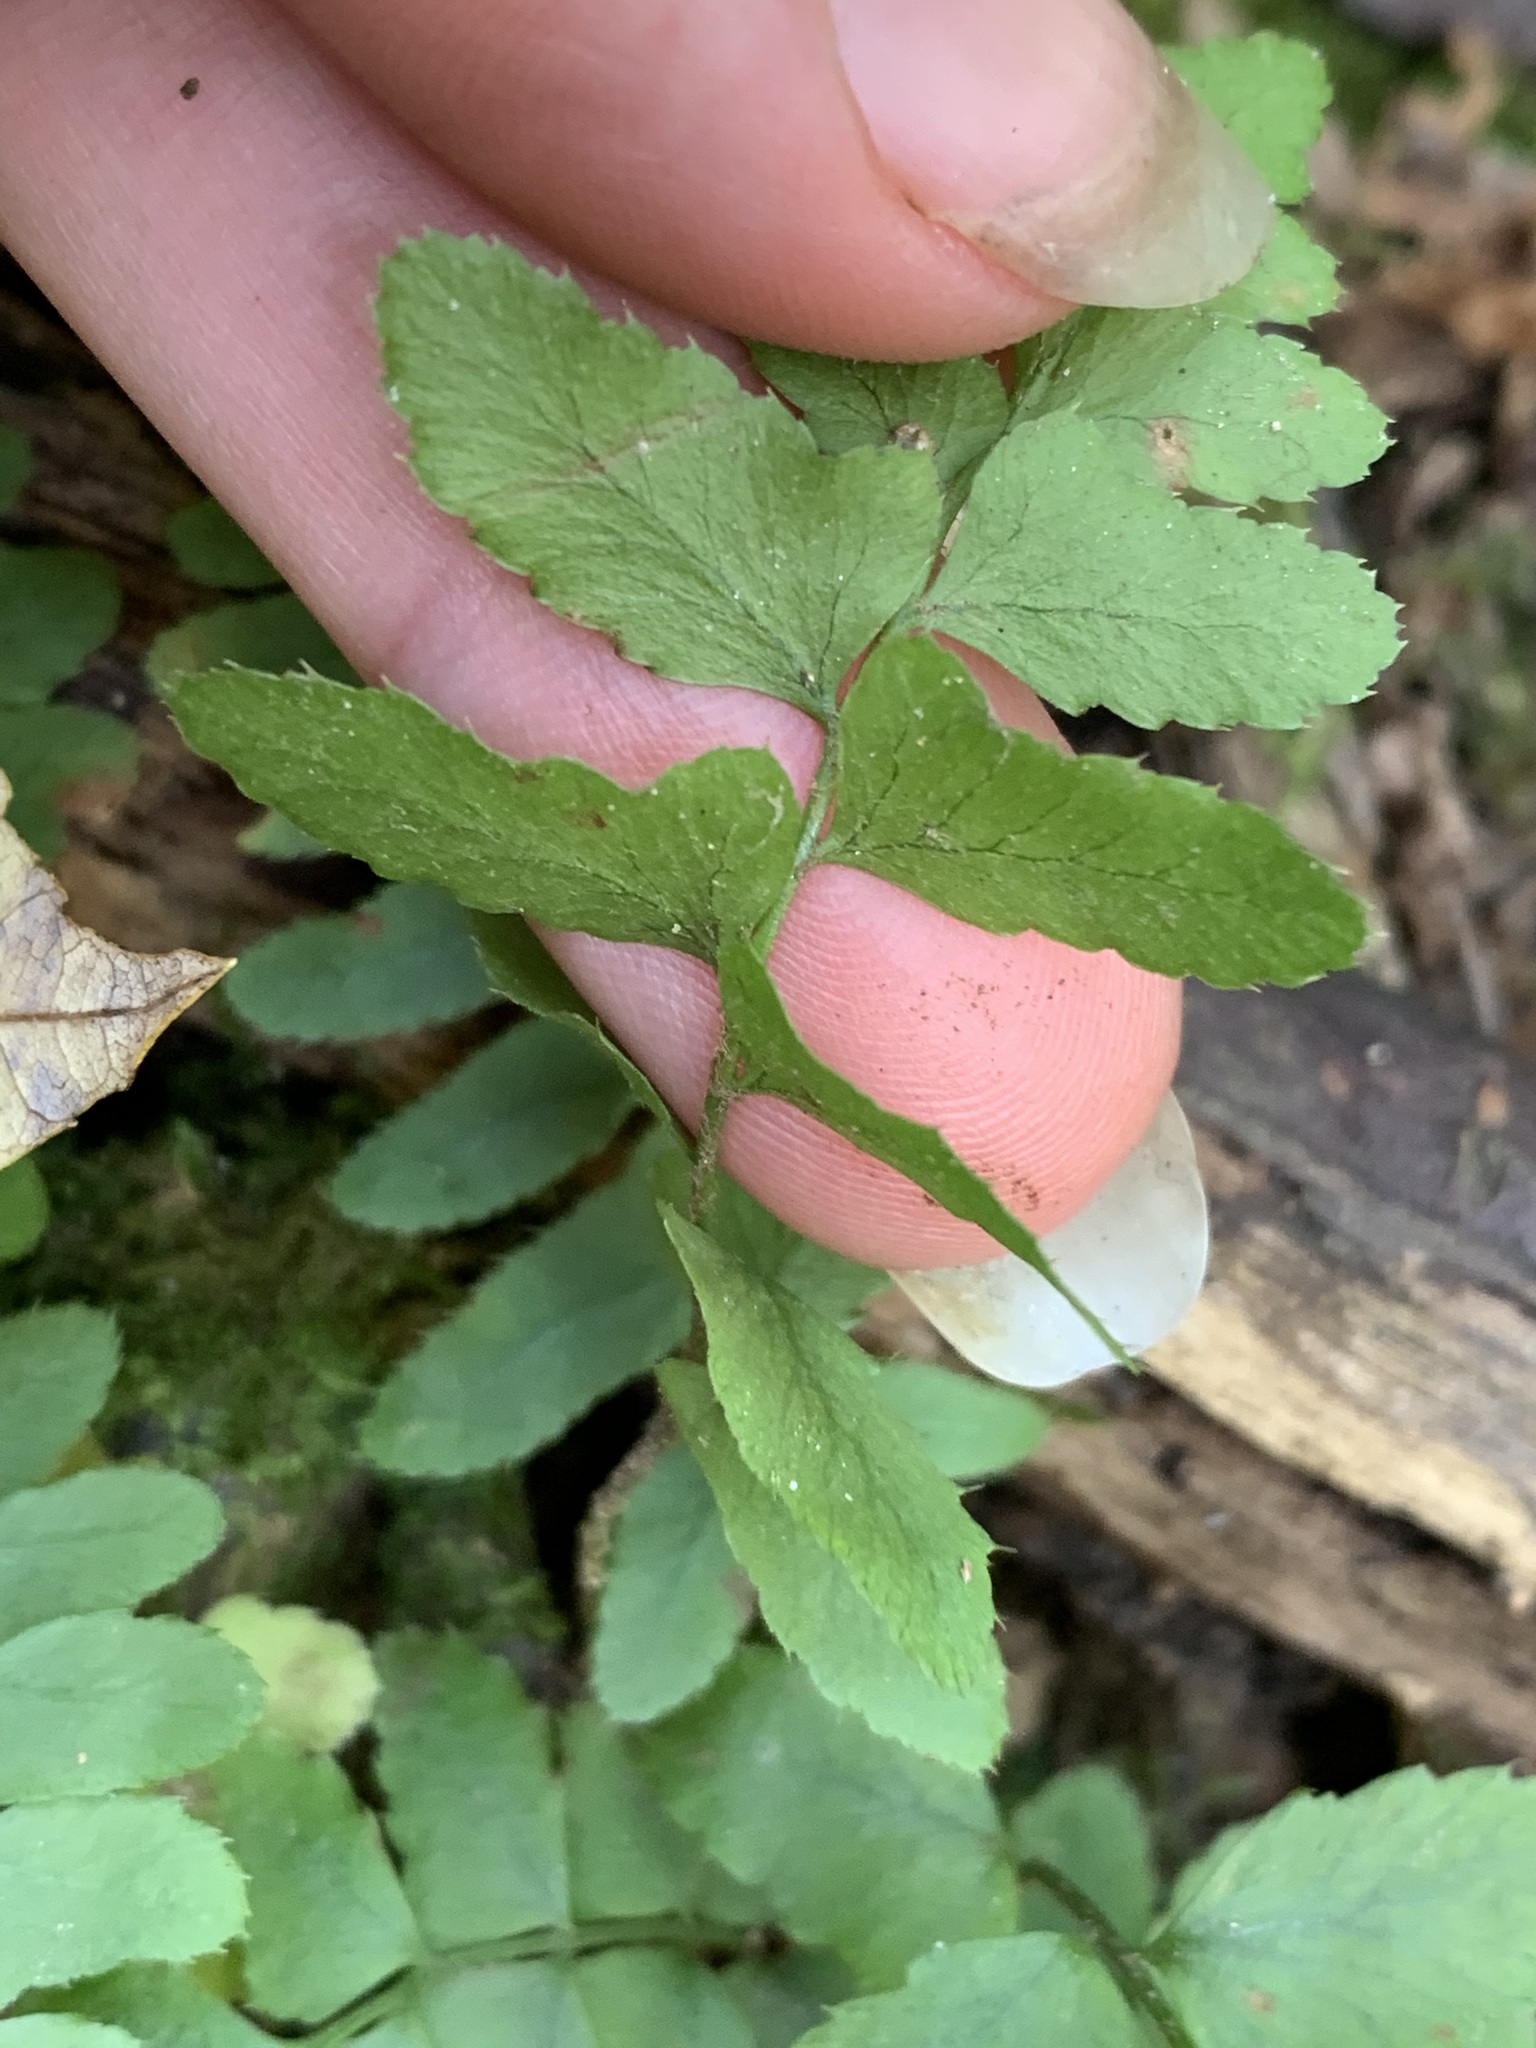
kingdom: Plantae
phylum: Tracheophyta
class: Polypodiopsida
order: Polypodiales
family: Dryopteridaceae
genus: Polystichum
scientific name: Polystichum acrostichoides
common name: Christmas fern
